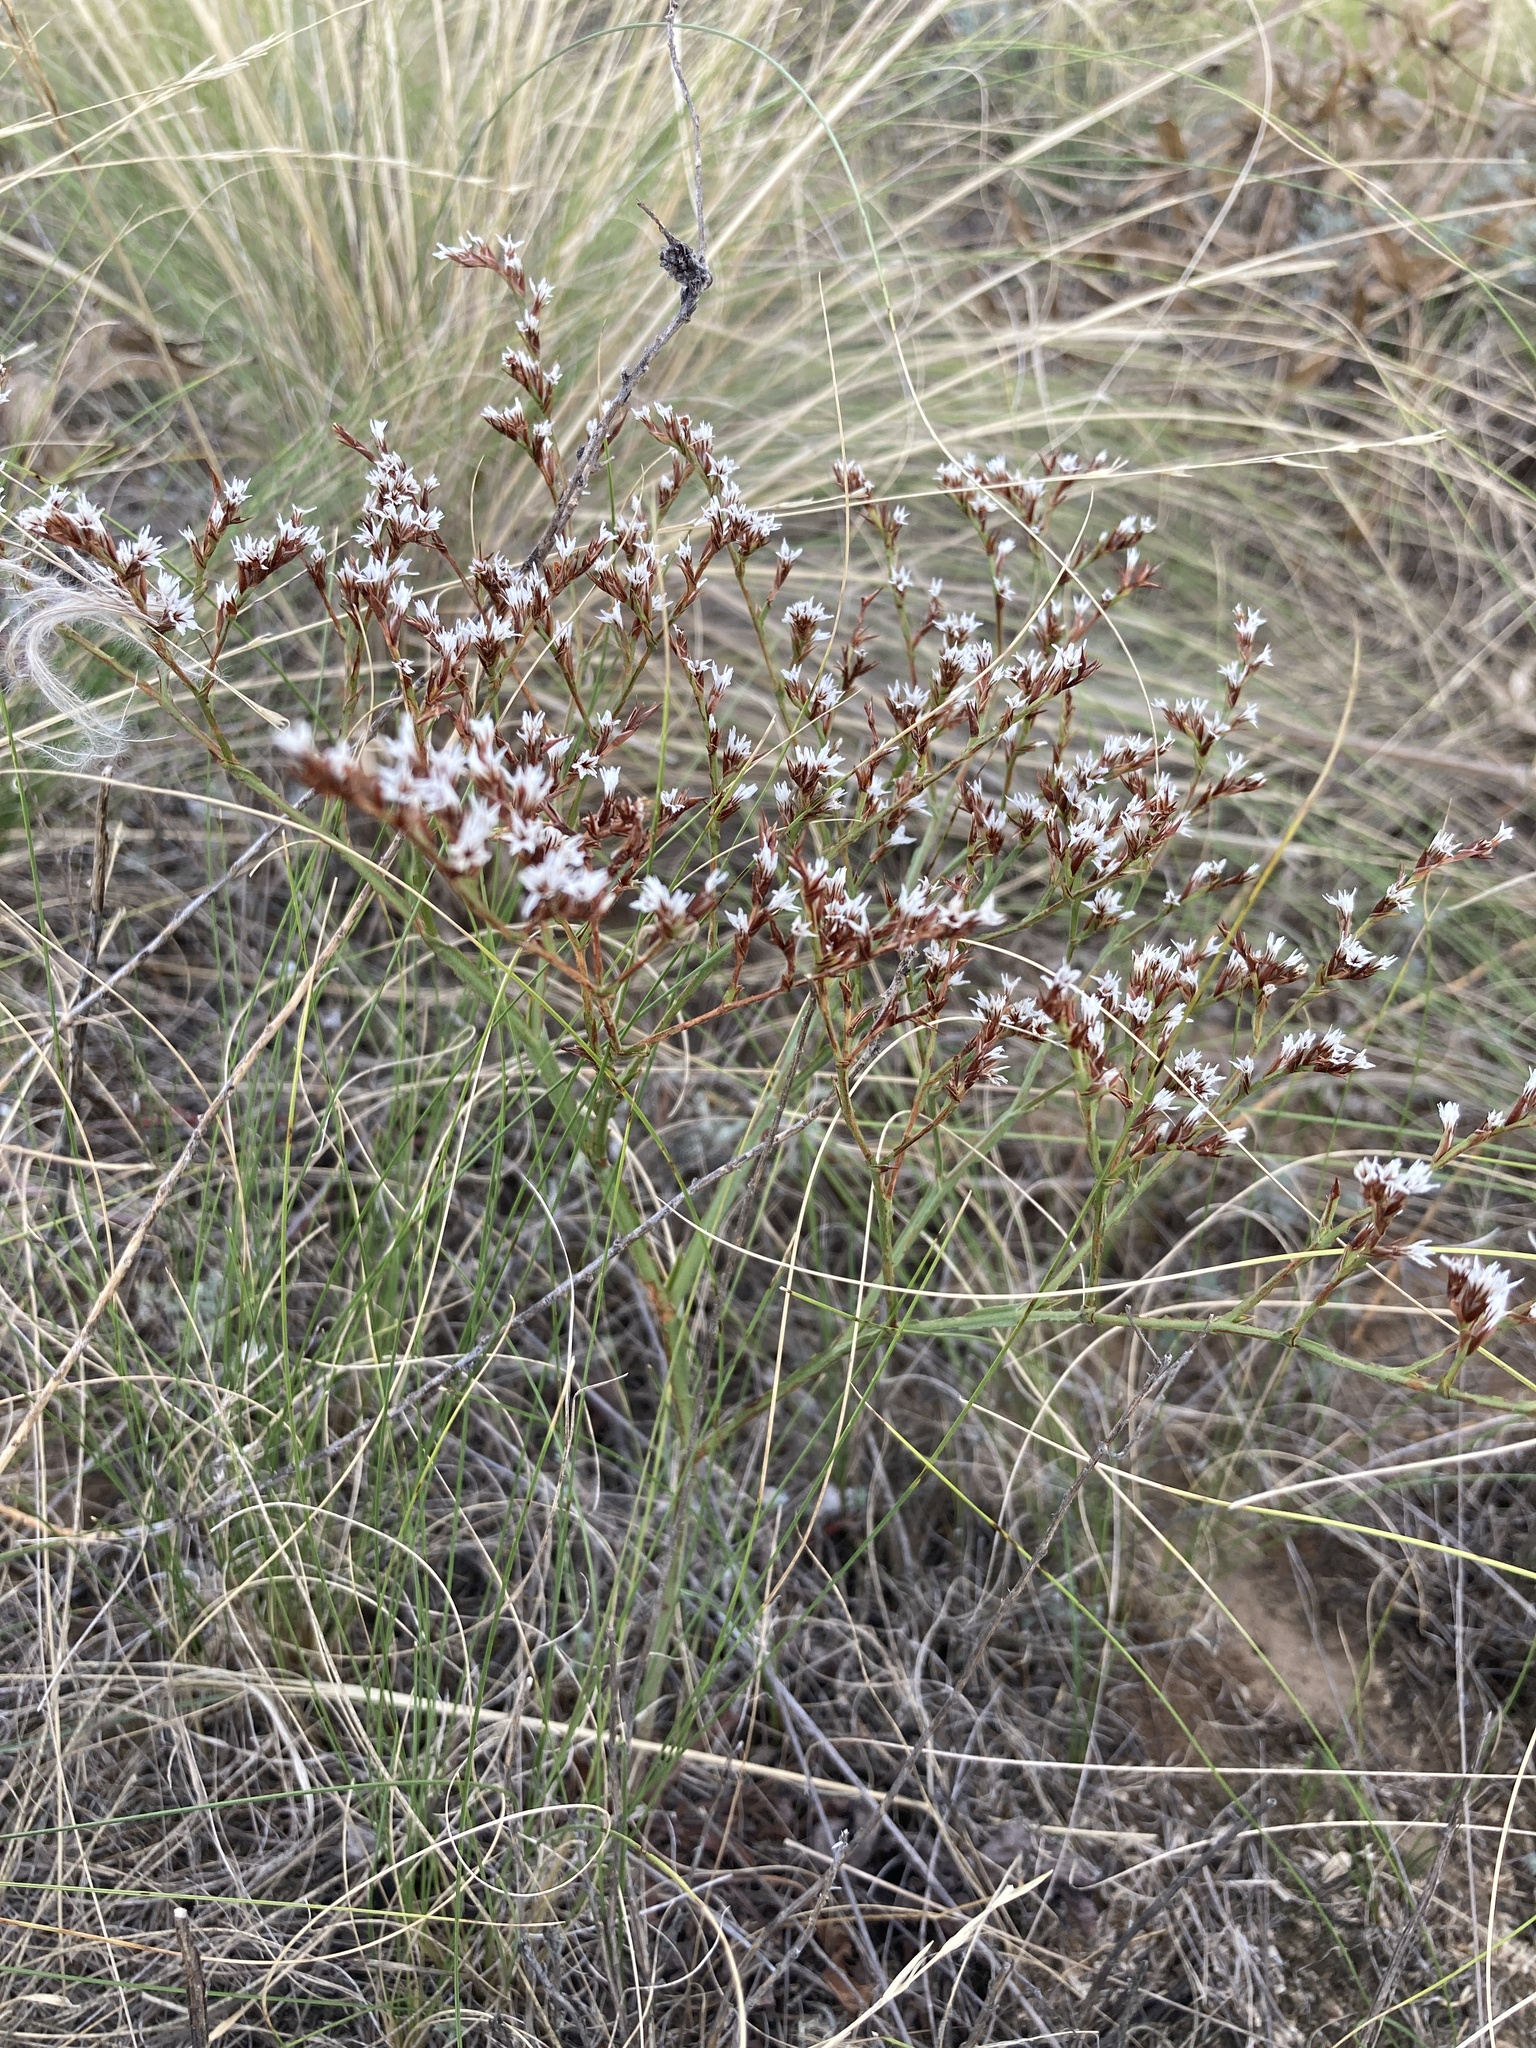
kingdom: Plantae
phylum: Tracheophyta
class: Magnoliopsida
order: Caryophyllales
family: Plumbaginaceae
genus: Goniolimon
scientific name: Goniolimon tataricum
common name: Statice
